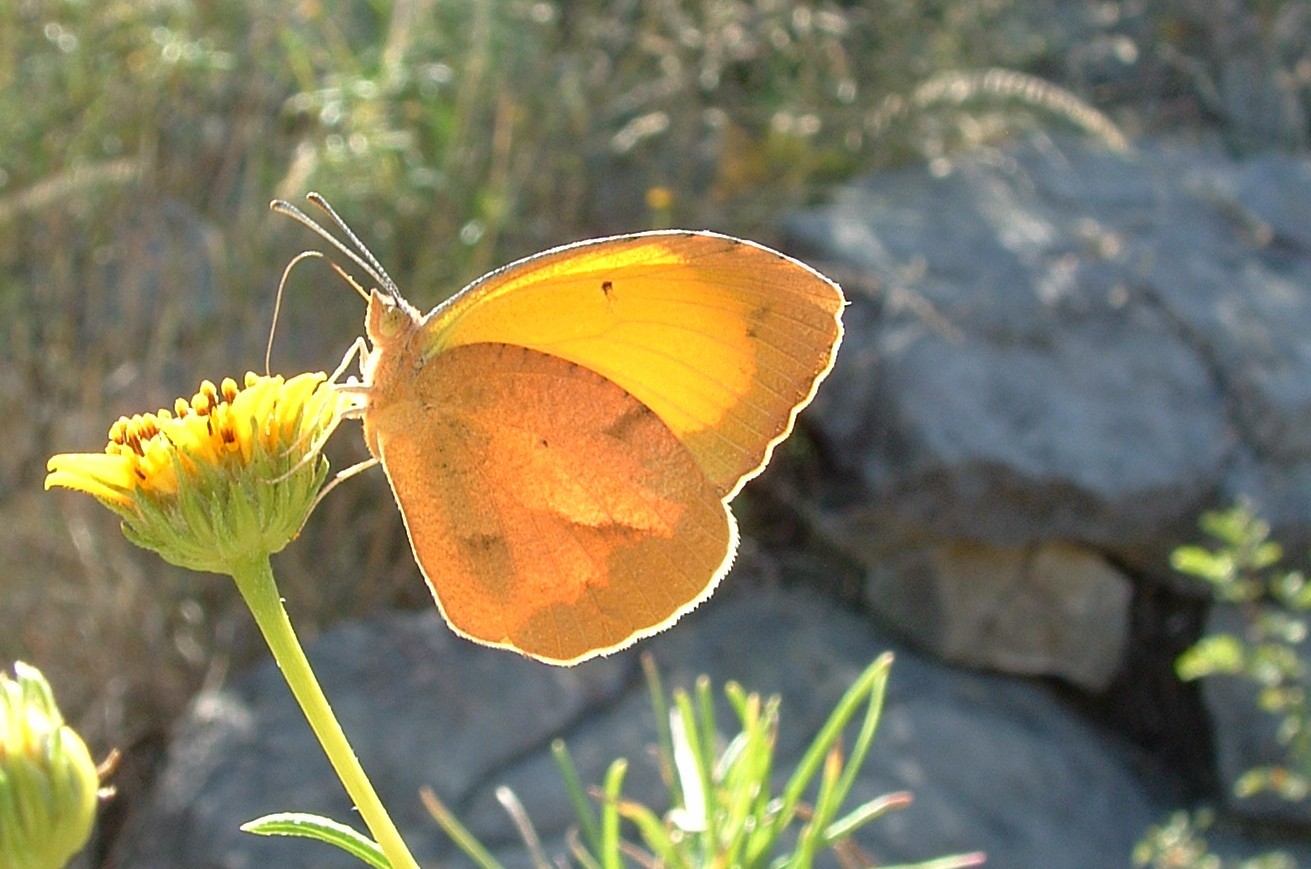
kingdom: Animalia
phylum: Arthropoda
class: Insecta
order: Lepidoptera
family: Pieridae
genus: Abaeis
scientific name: Abaeis nicippe
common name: Sleepy orange
